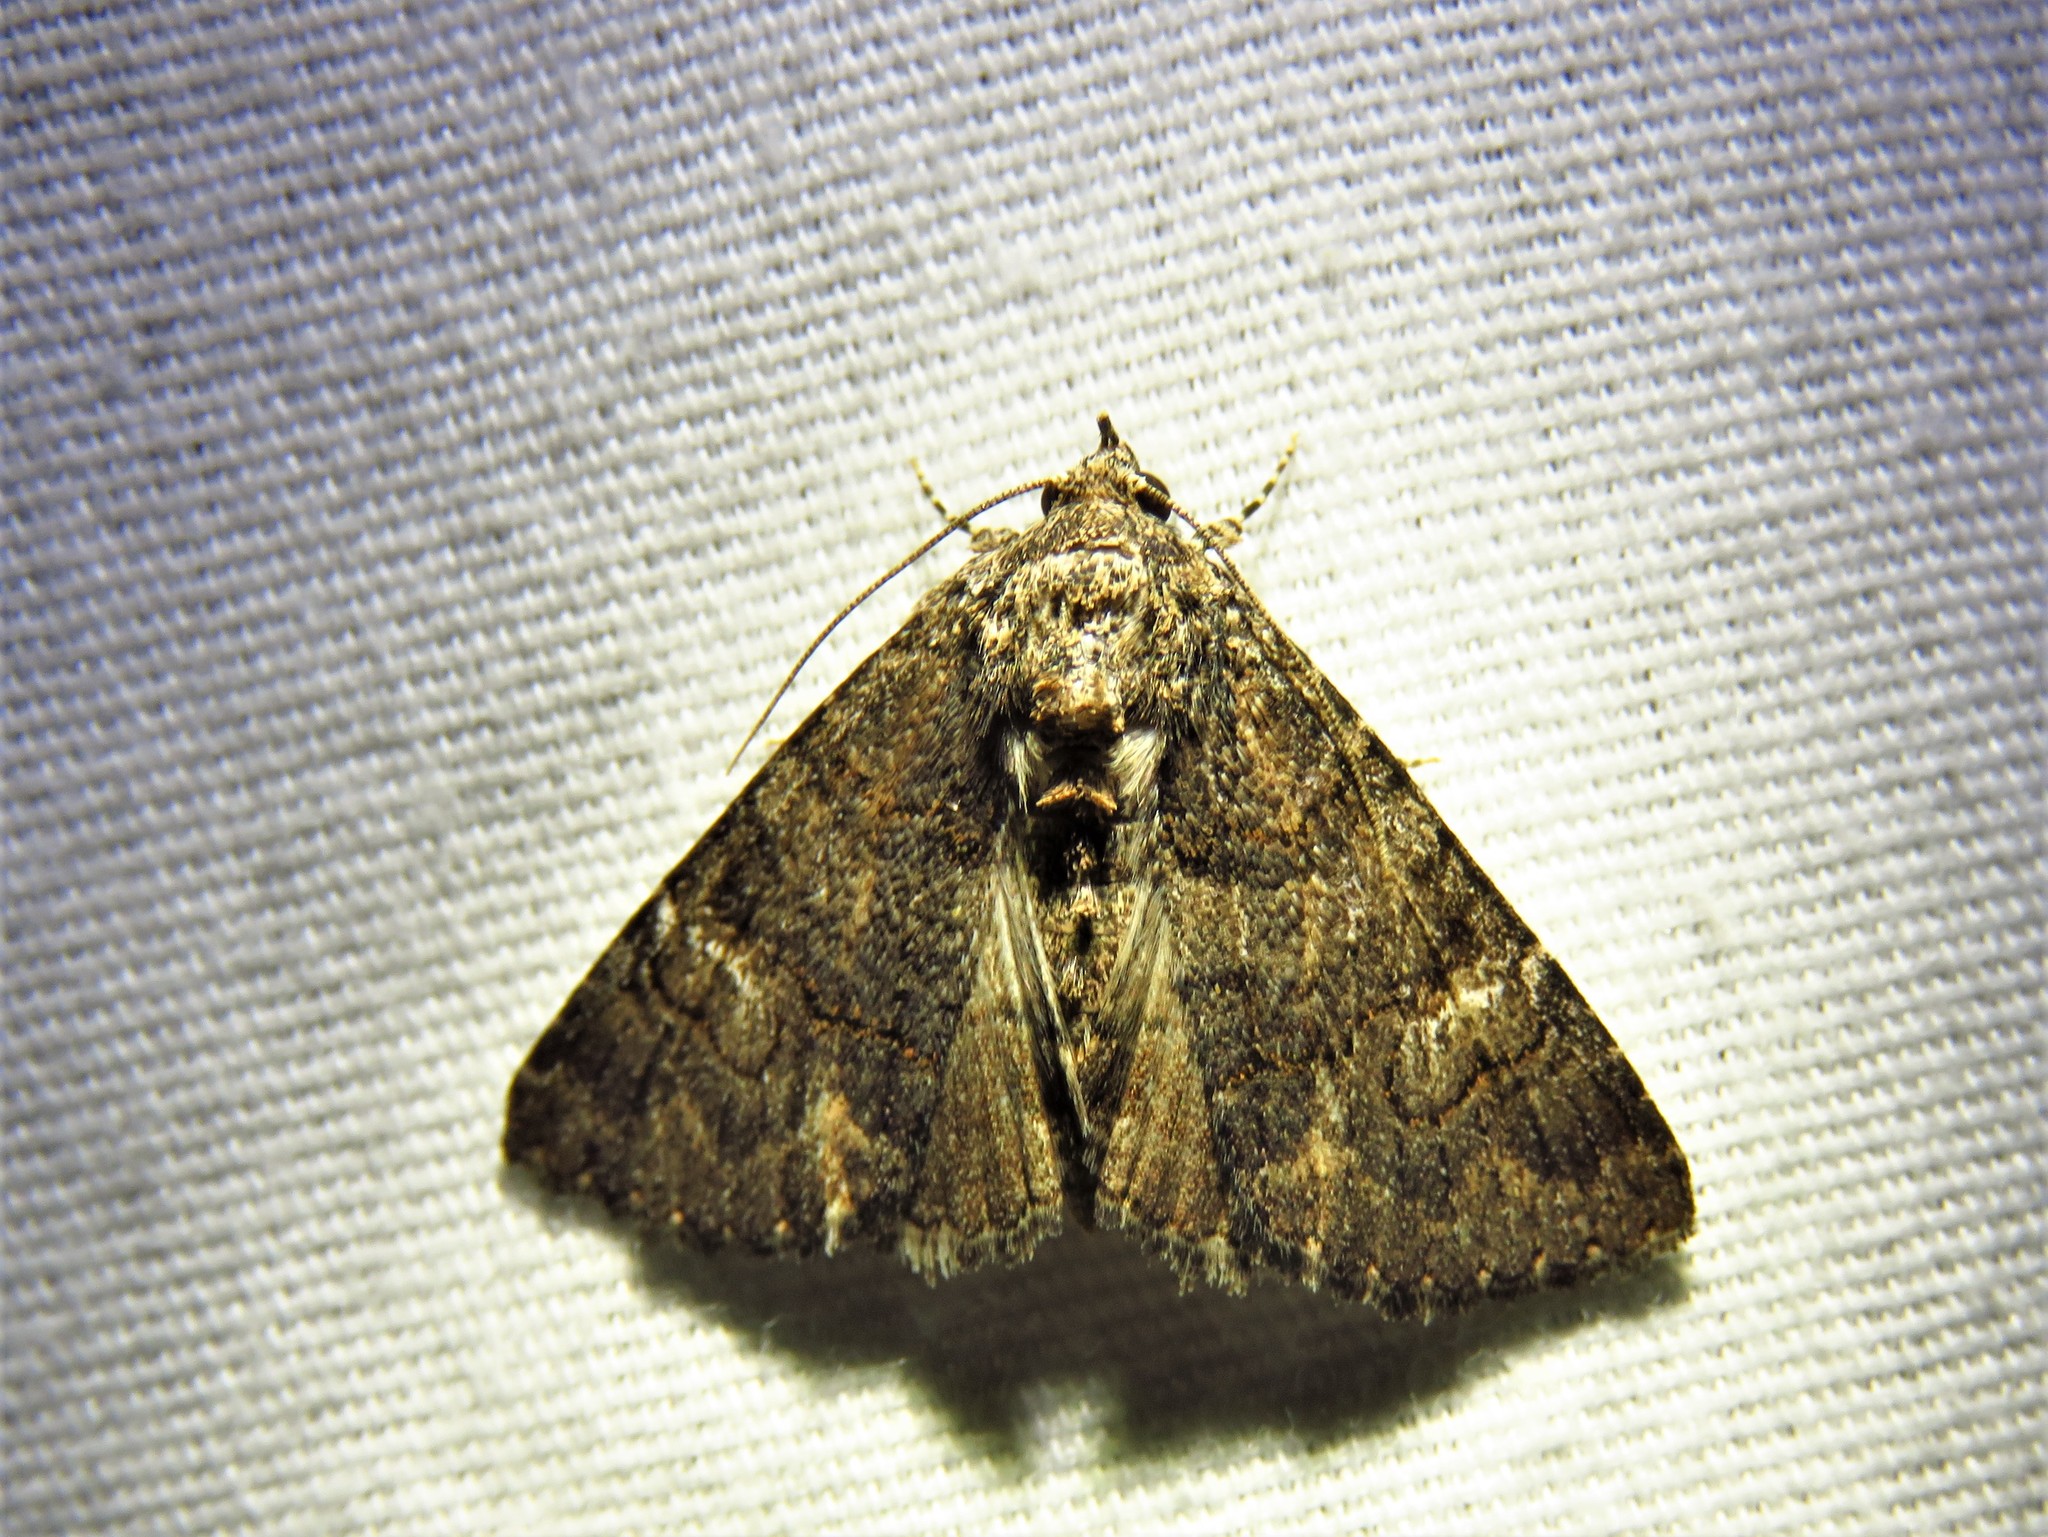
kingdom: Animalia
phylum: Arthropoda
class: Insecta
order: Lepidoptera
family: Erebidae
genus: Elousa
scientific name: Elousa mima
